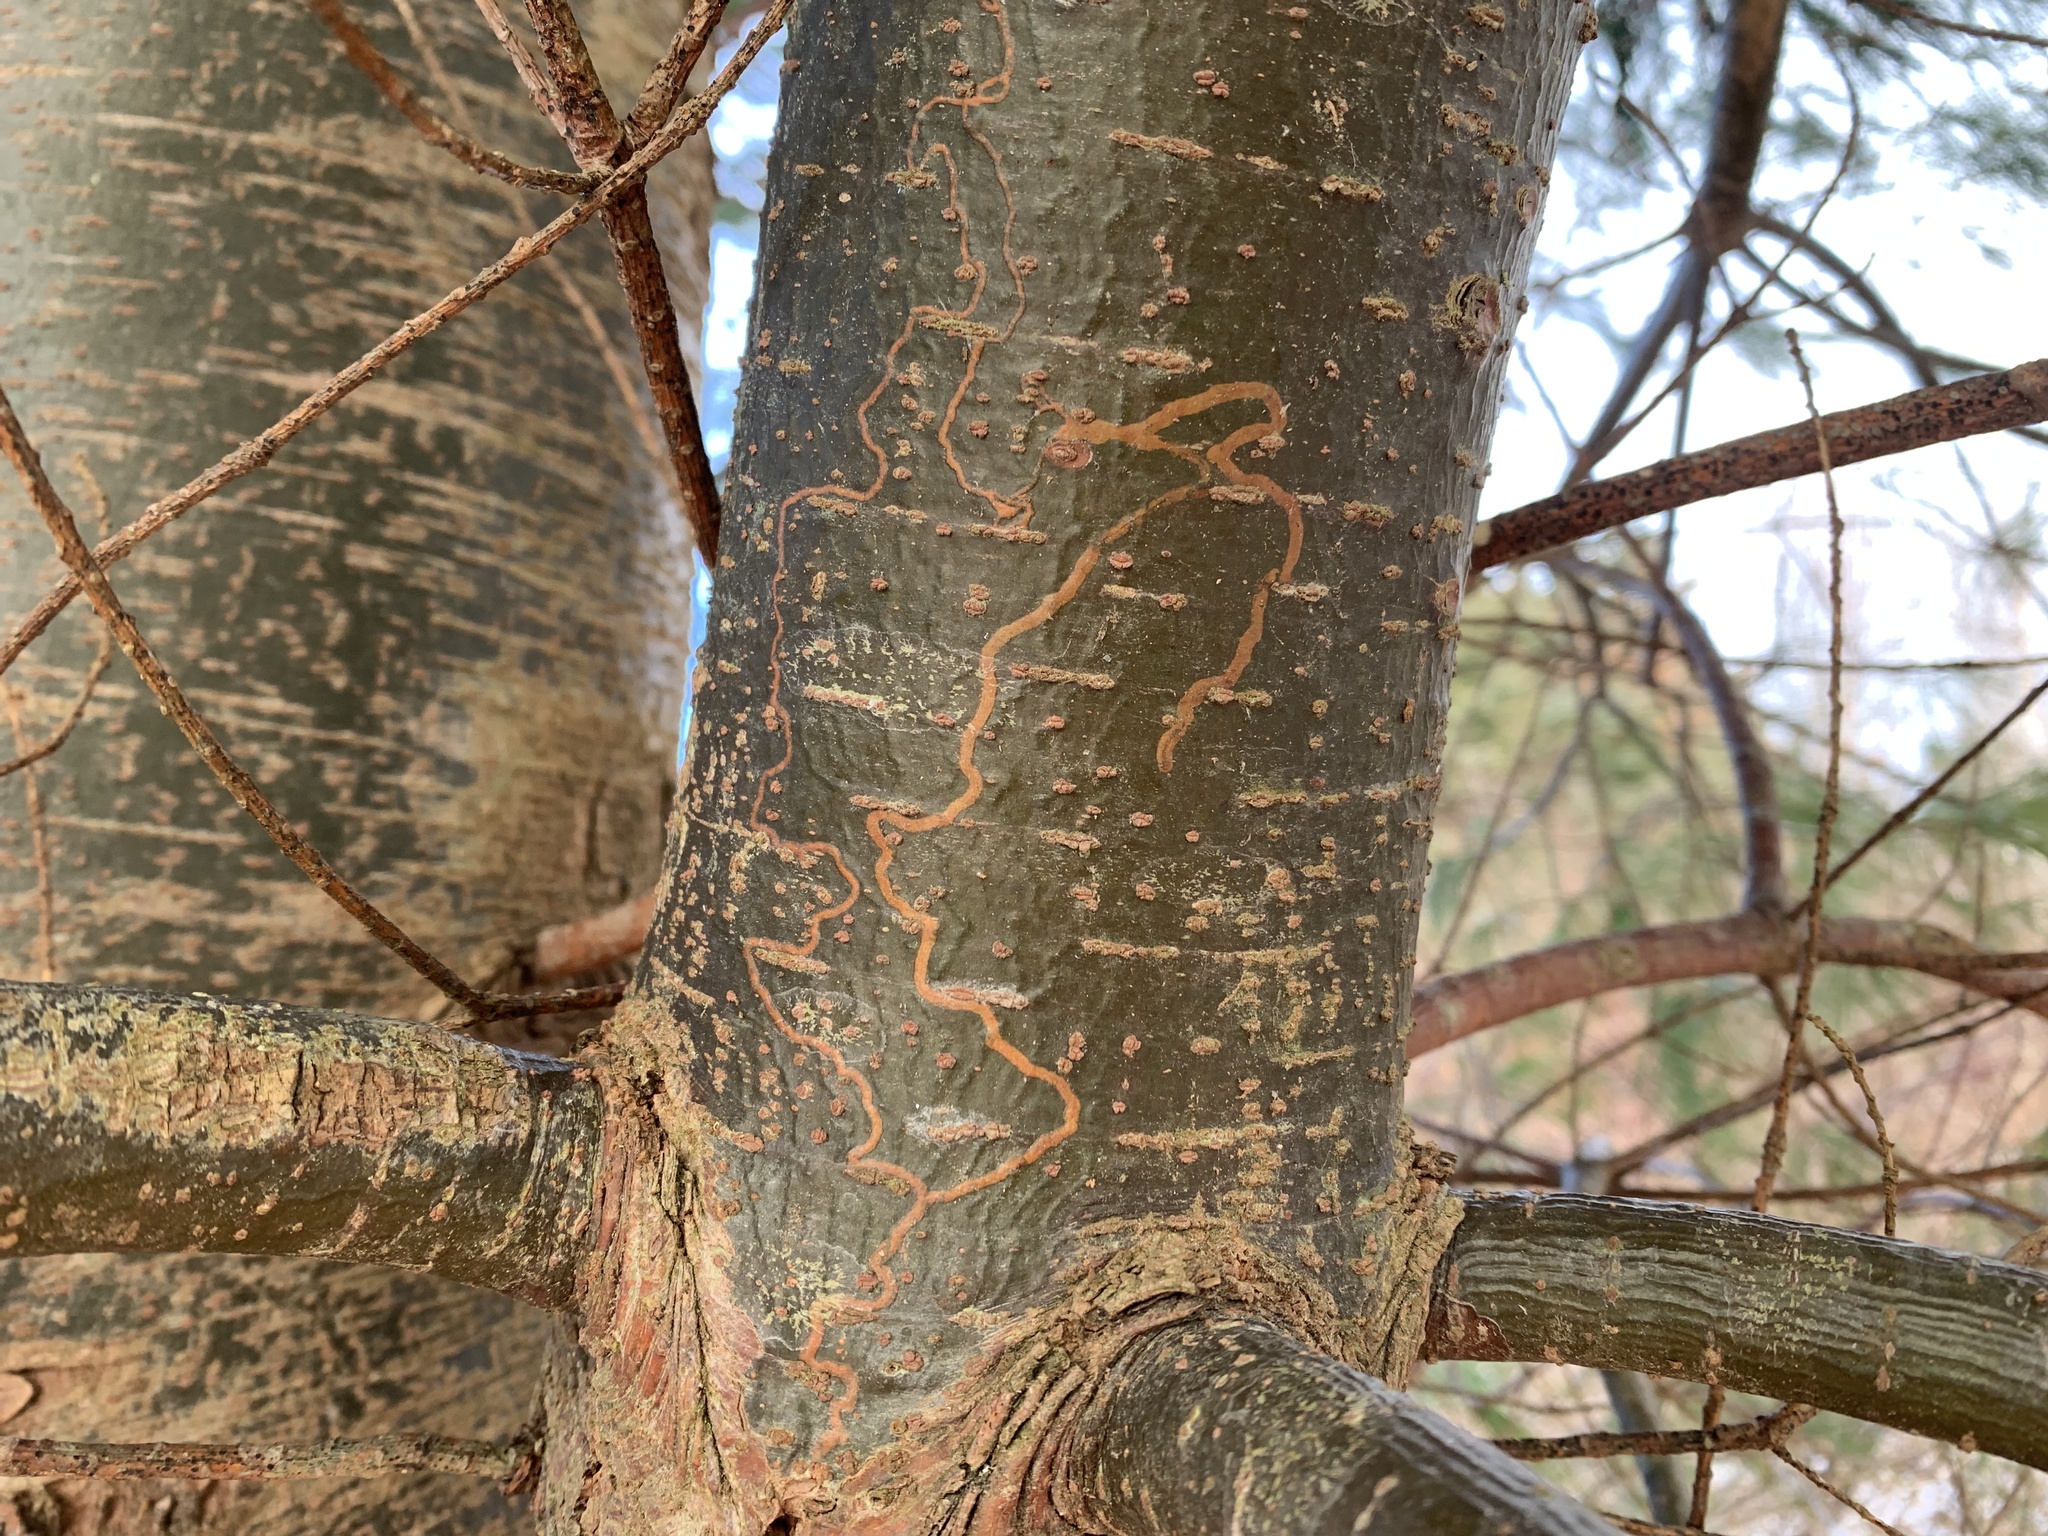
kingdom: Animalia
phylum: Arthropoda
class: Insecta
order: Lepidoptera
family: Gracillariidae
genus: Marmara
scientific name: Marmara fasciella
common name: White pine barkminer moth
